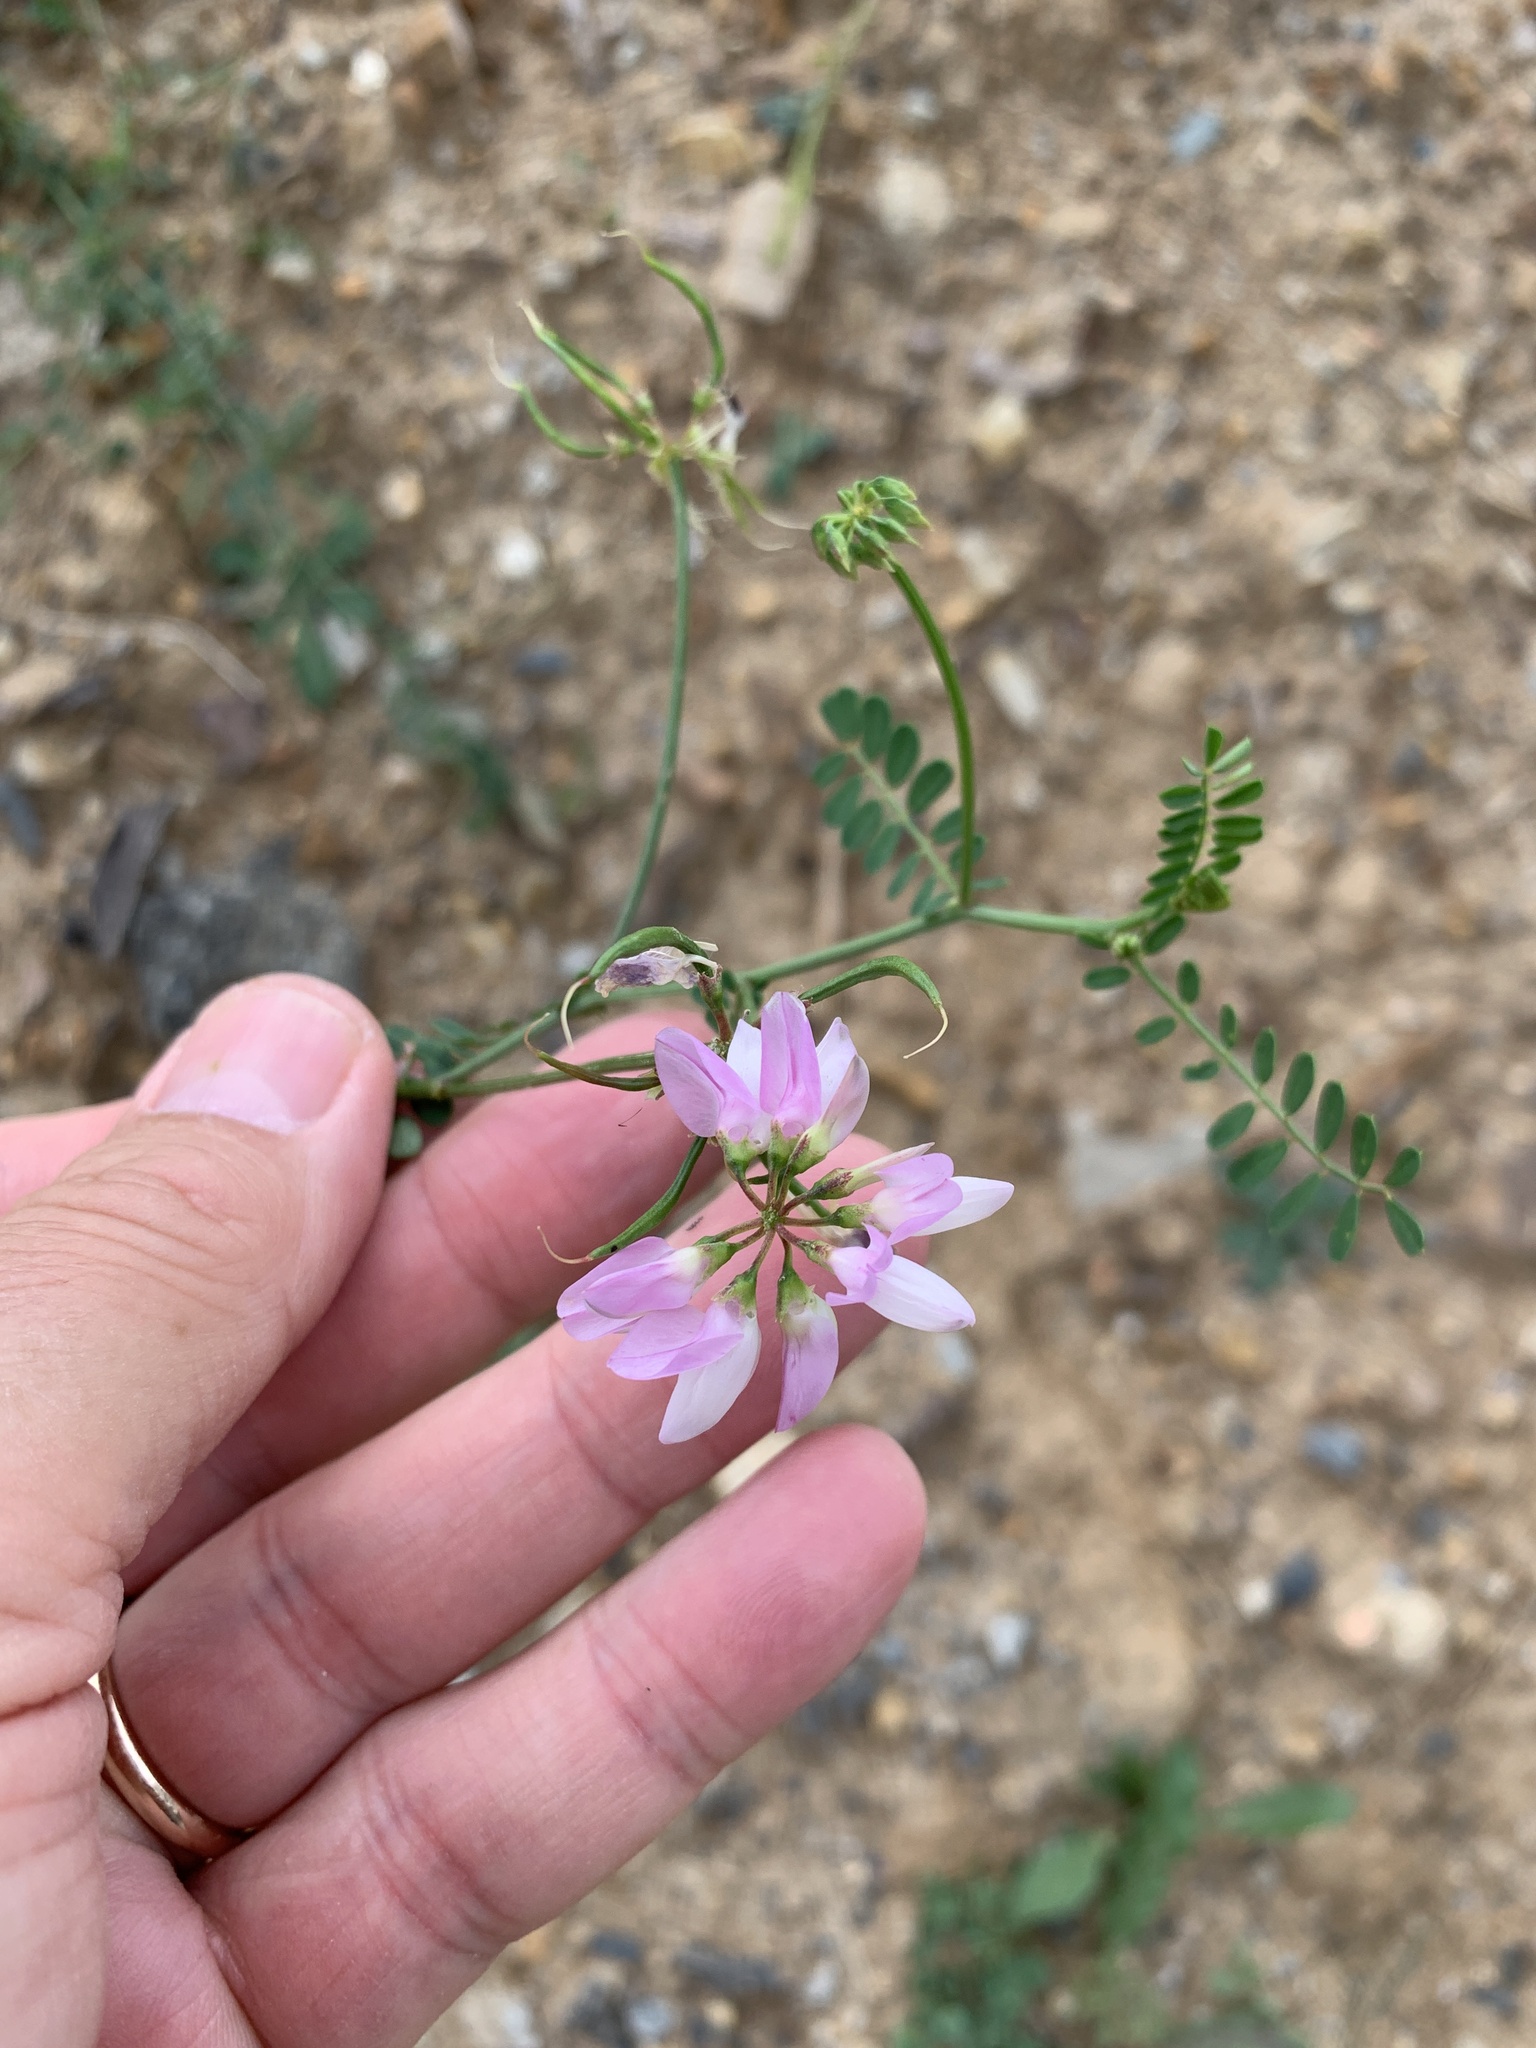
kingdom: Plantae
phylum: Tracheophyta
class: Magnoliopsida
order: Fabales
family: Fabaceae
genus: Coronilla
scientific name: Coronilla varia
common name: Crownvetch
